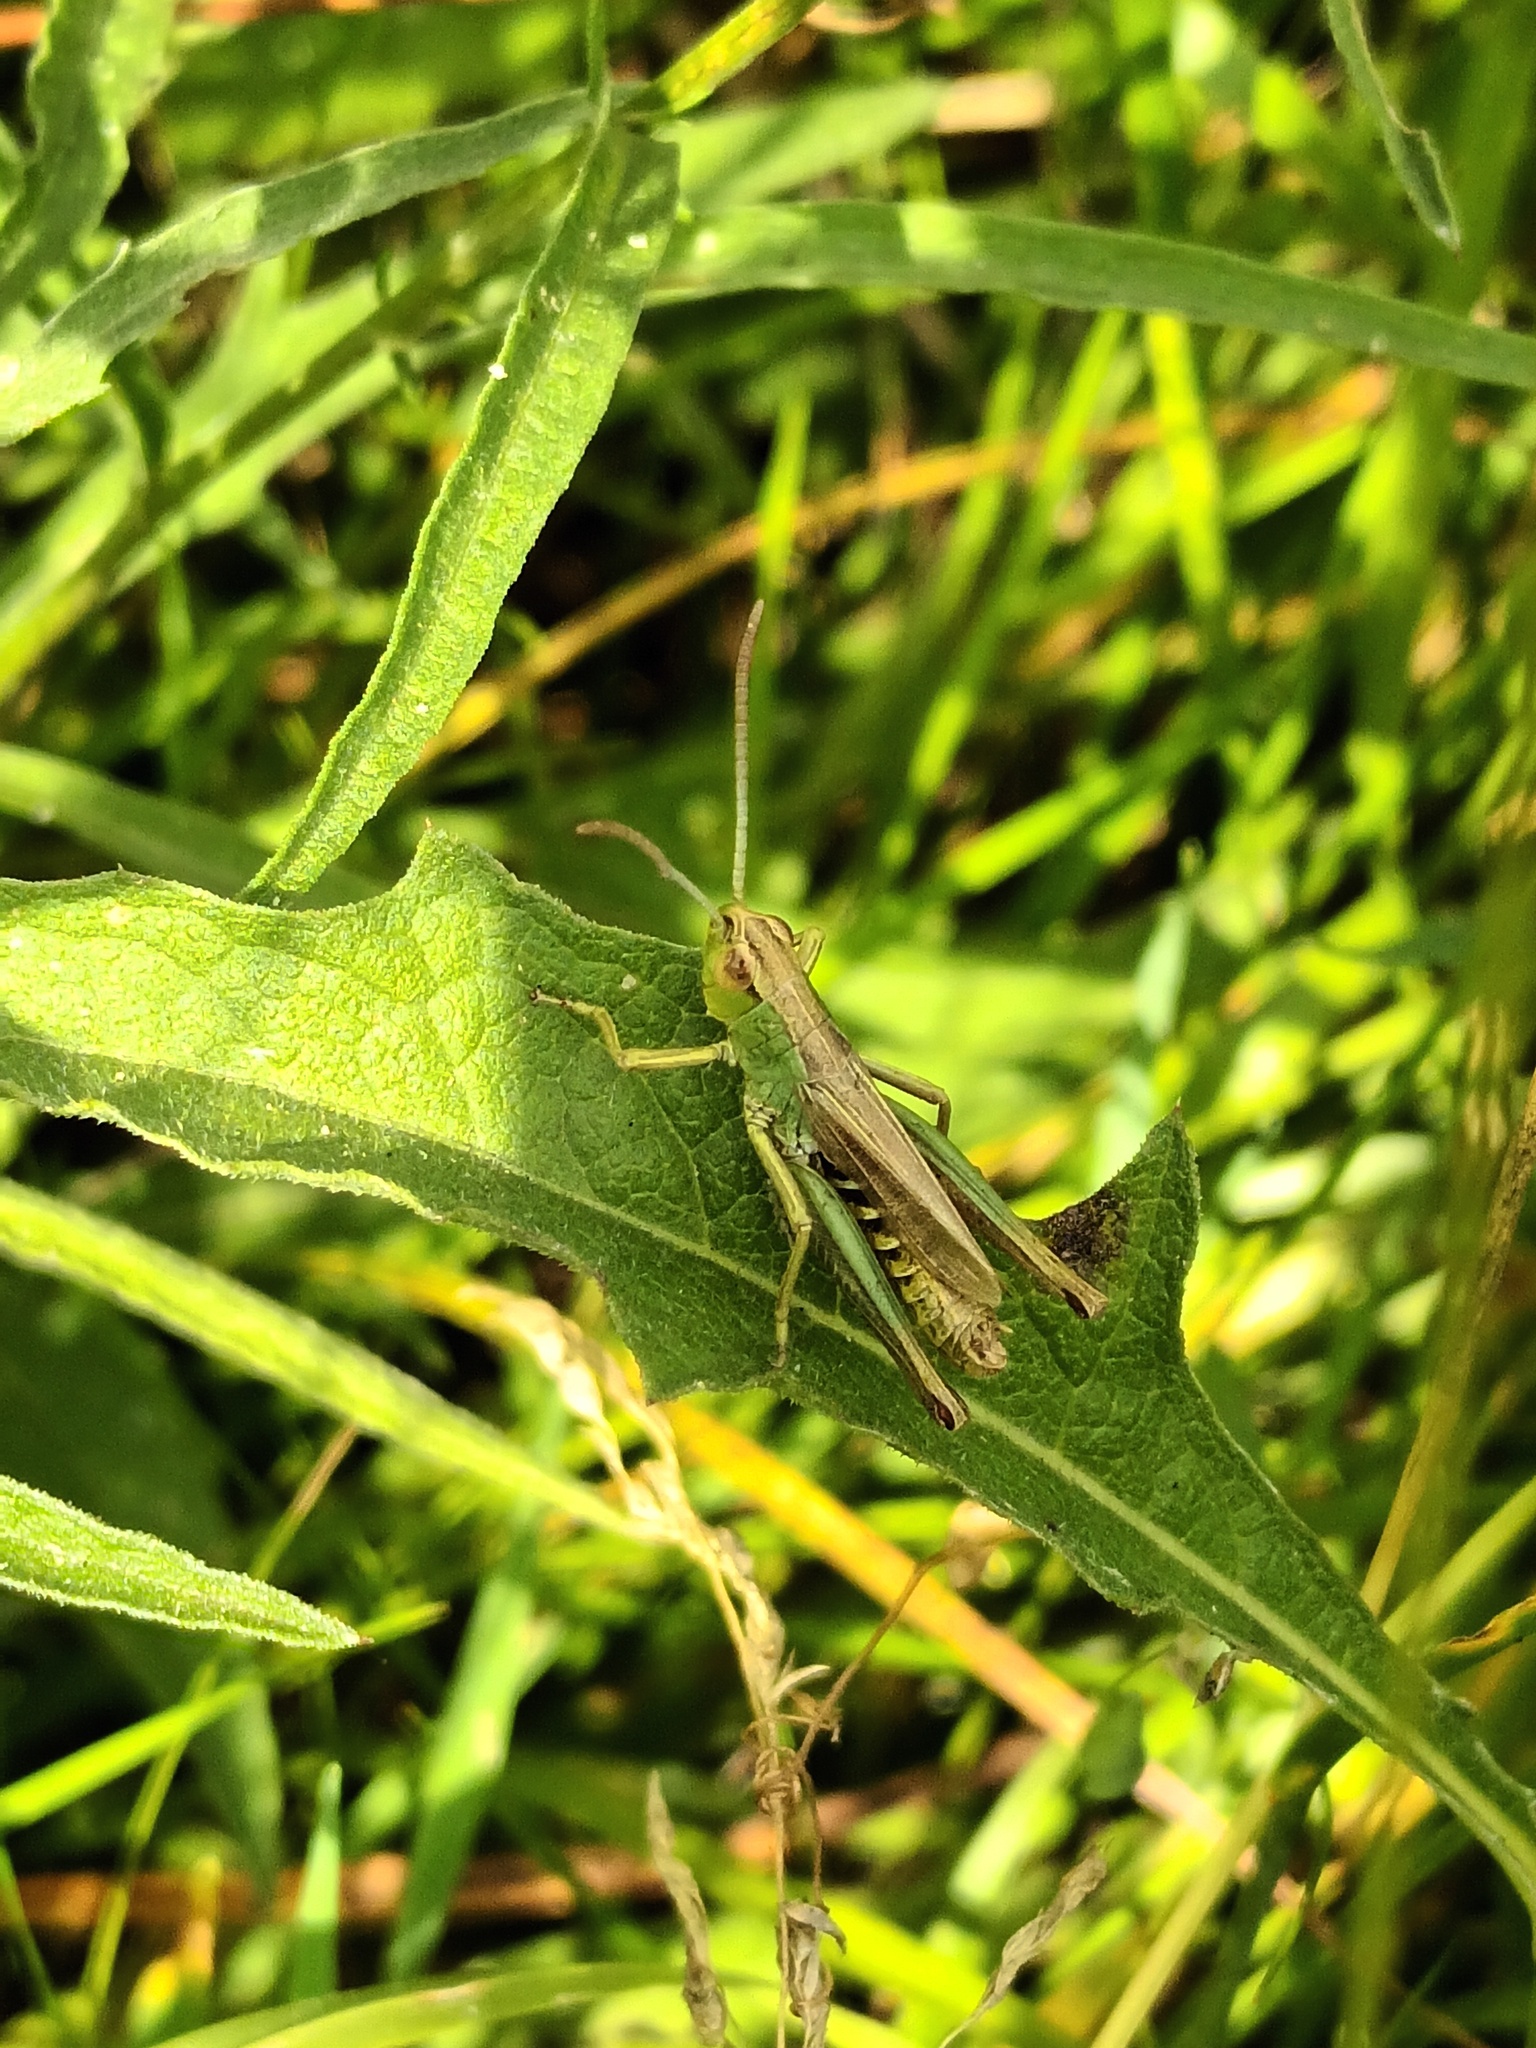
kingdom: Animalia
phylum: Arthropoda
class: Insecta
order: Orthoptera
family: Acrididae
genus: Pseudochorthippus
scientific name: Pseudochorthippus parallelus
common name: Meadow grasshopper
